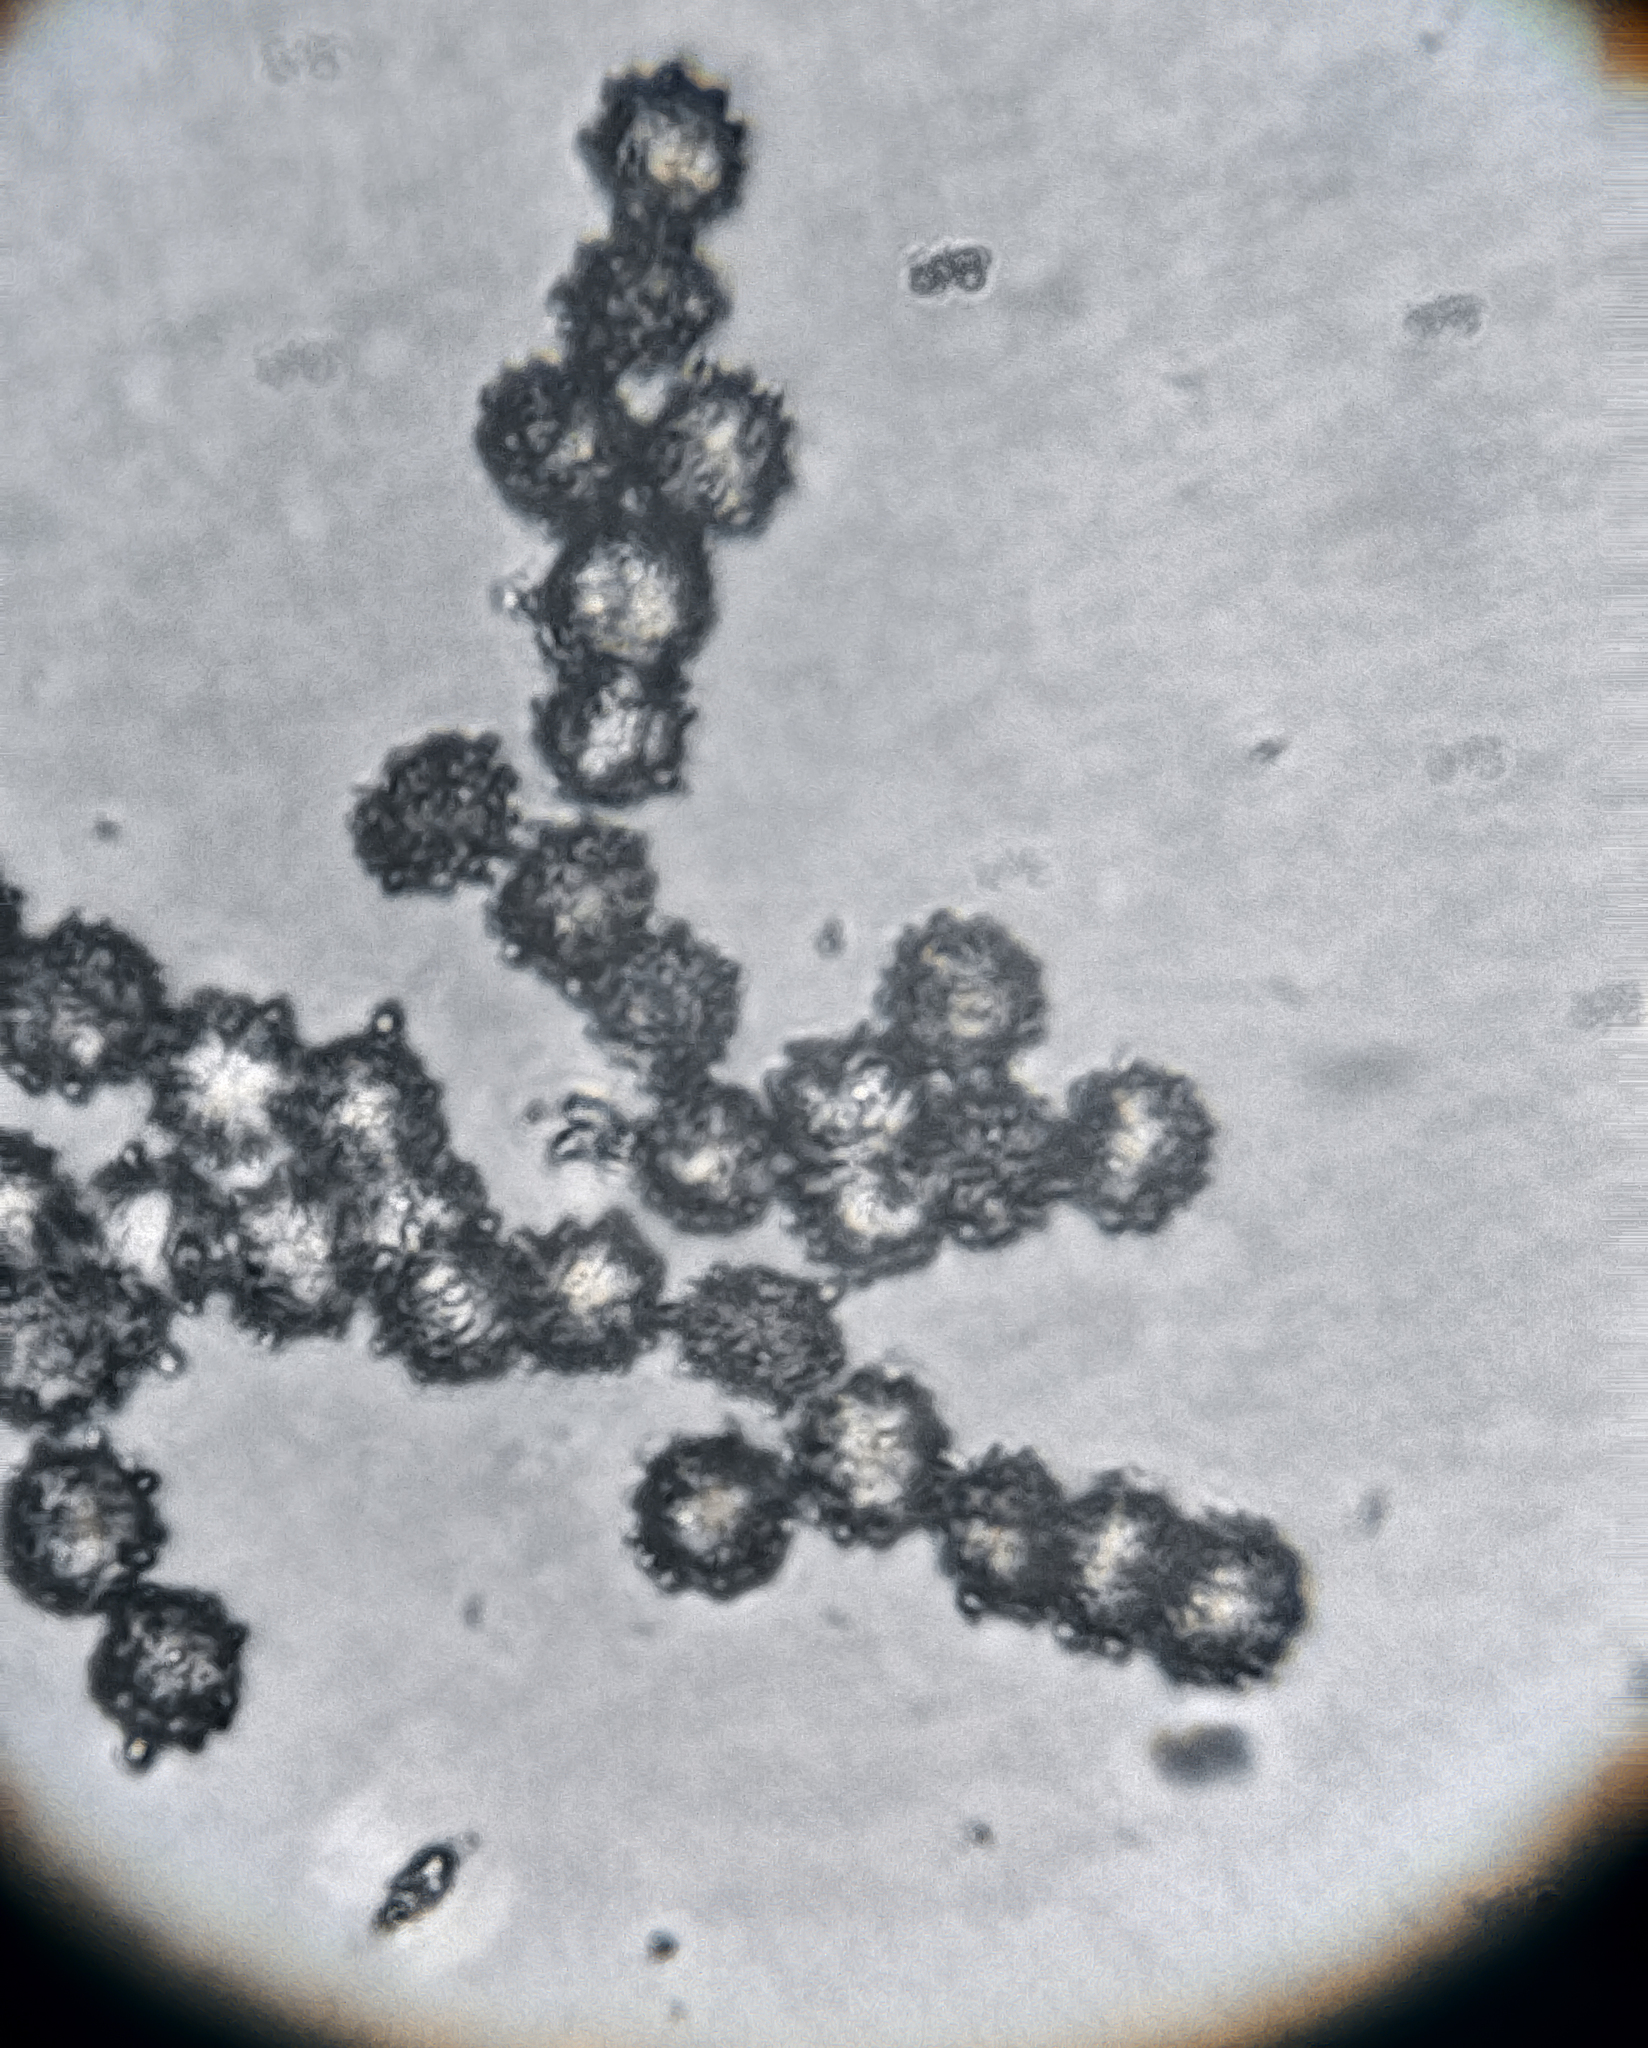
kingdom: Fungi
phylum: Basidiomycota
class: Agaricomycetes
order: Russulales
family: Russulaceae
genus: Russula
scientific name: Russula ochroleuca
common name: Common yellow russula
